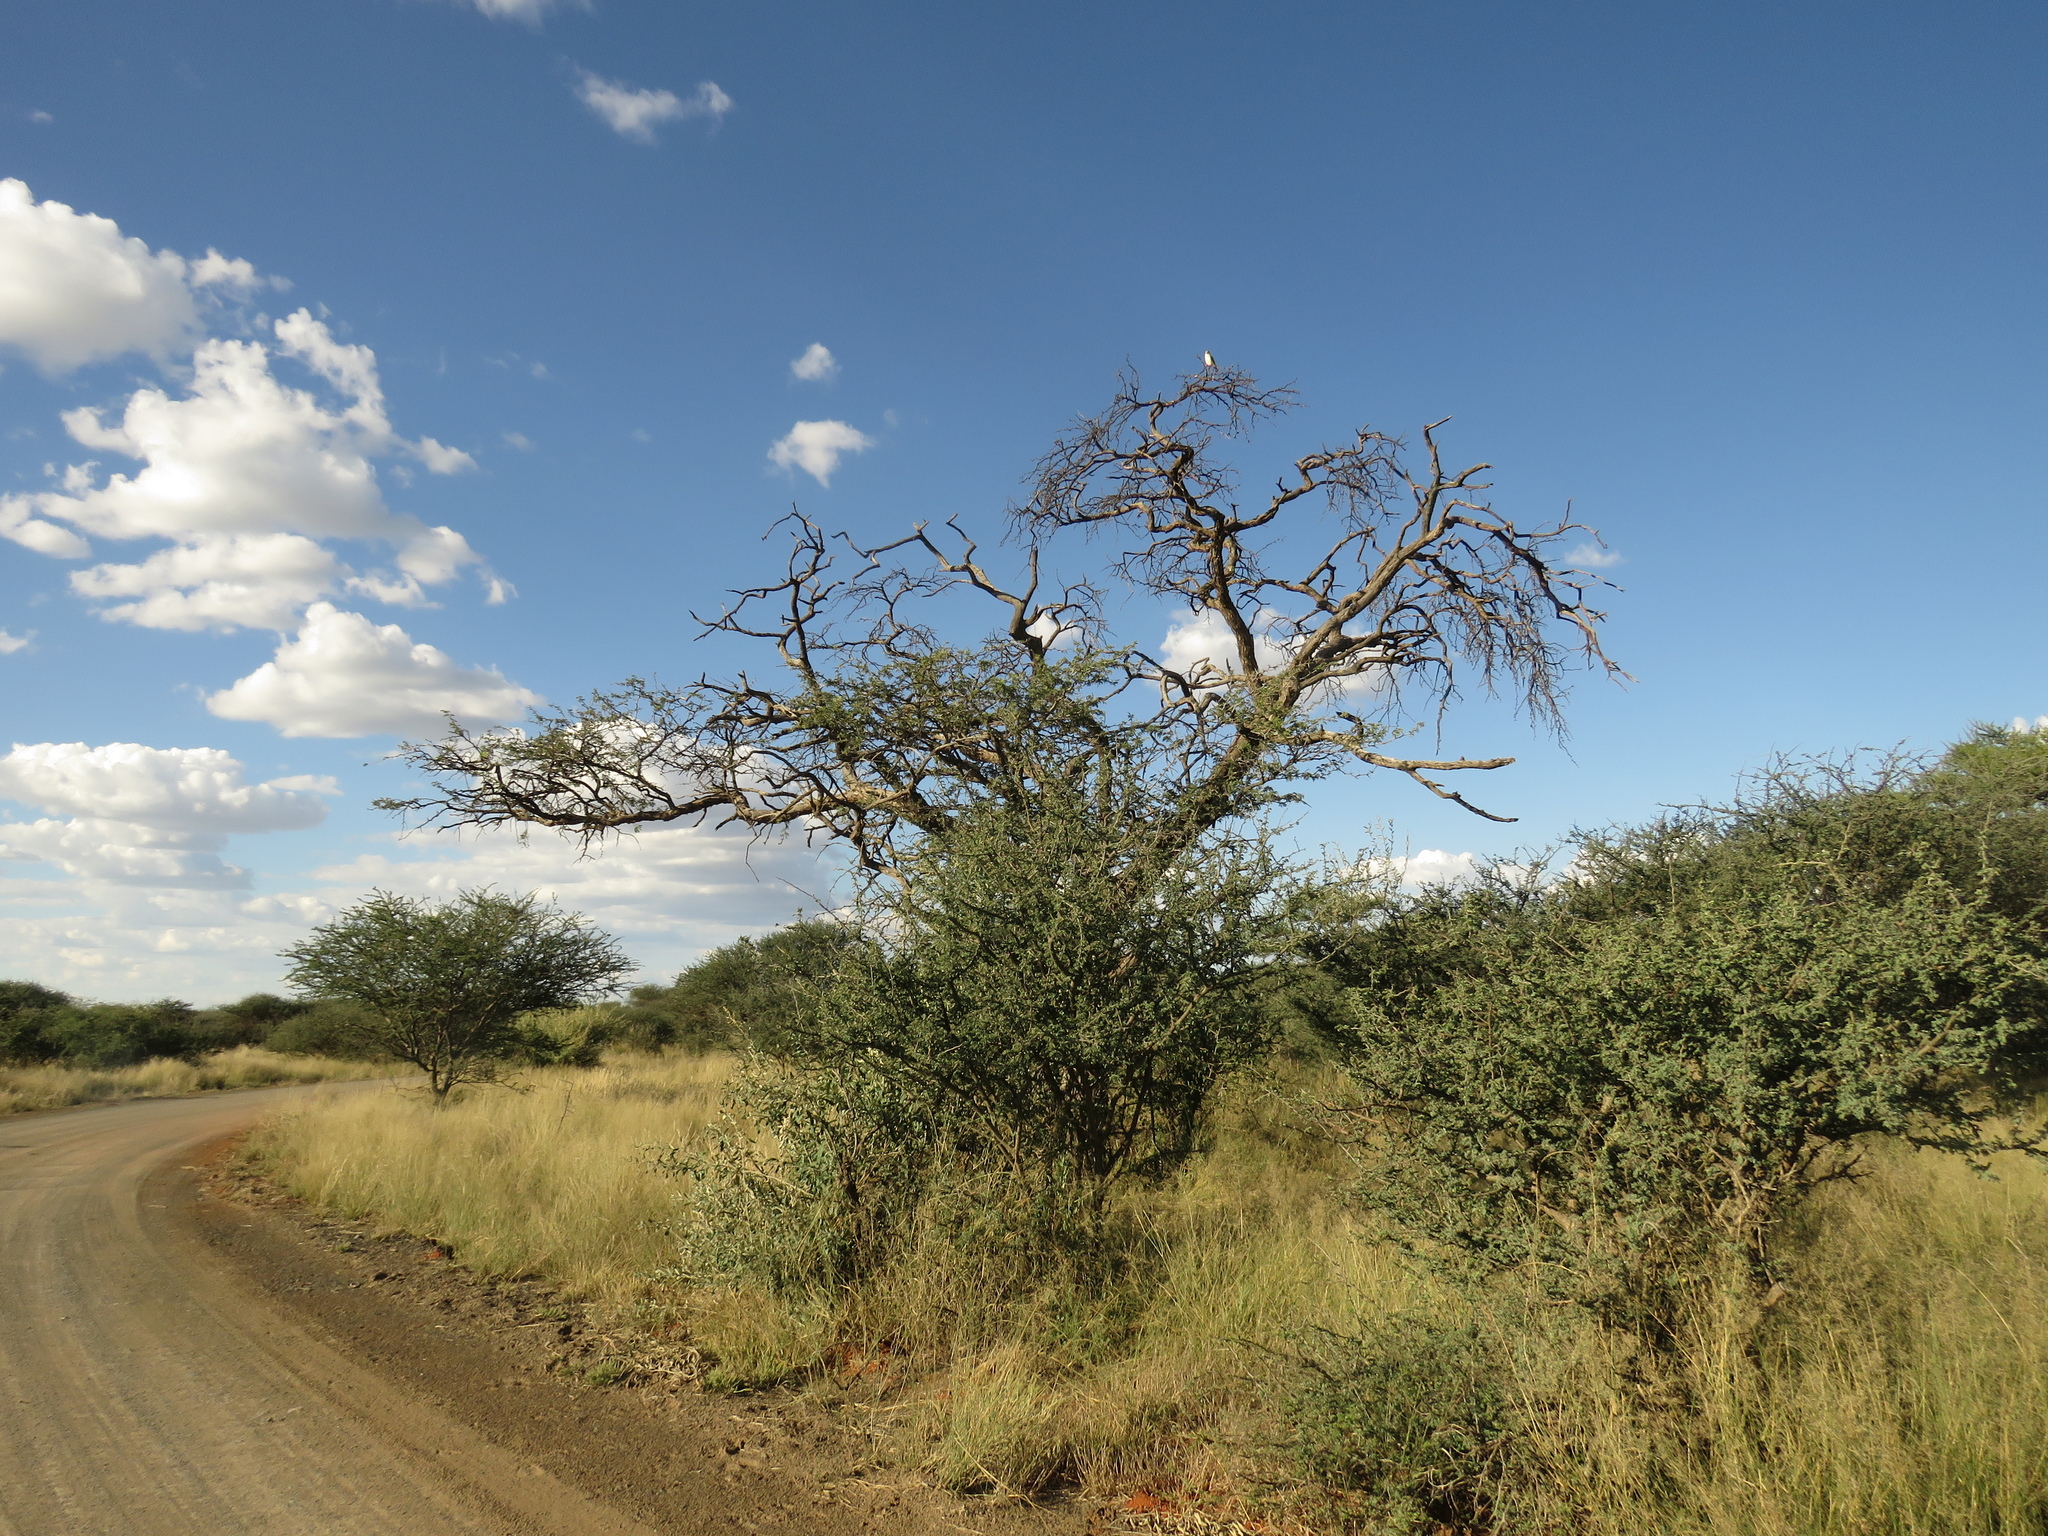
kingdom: Animalia
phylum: Chordata
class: Aves
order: Falconiformes
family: Falconidae
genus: Polihierax
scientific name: Polihierax semitorquatus
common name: Pygmy falcon
